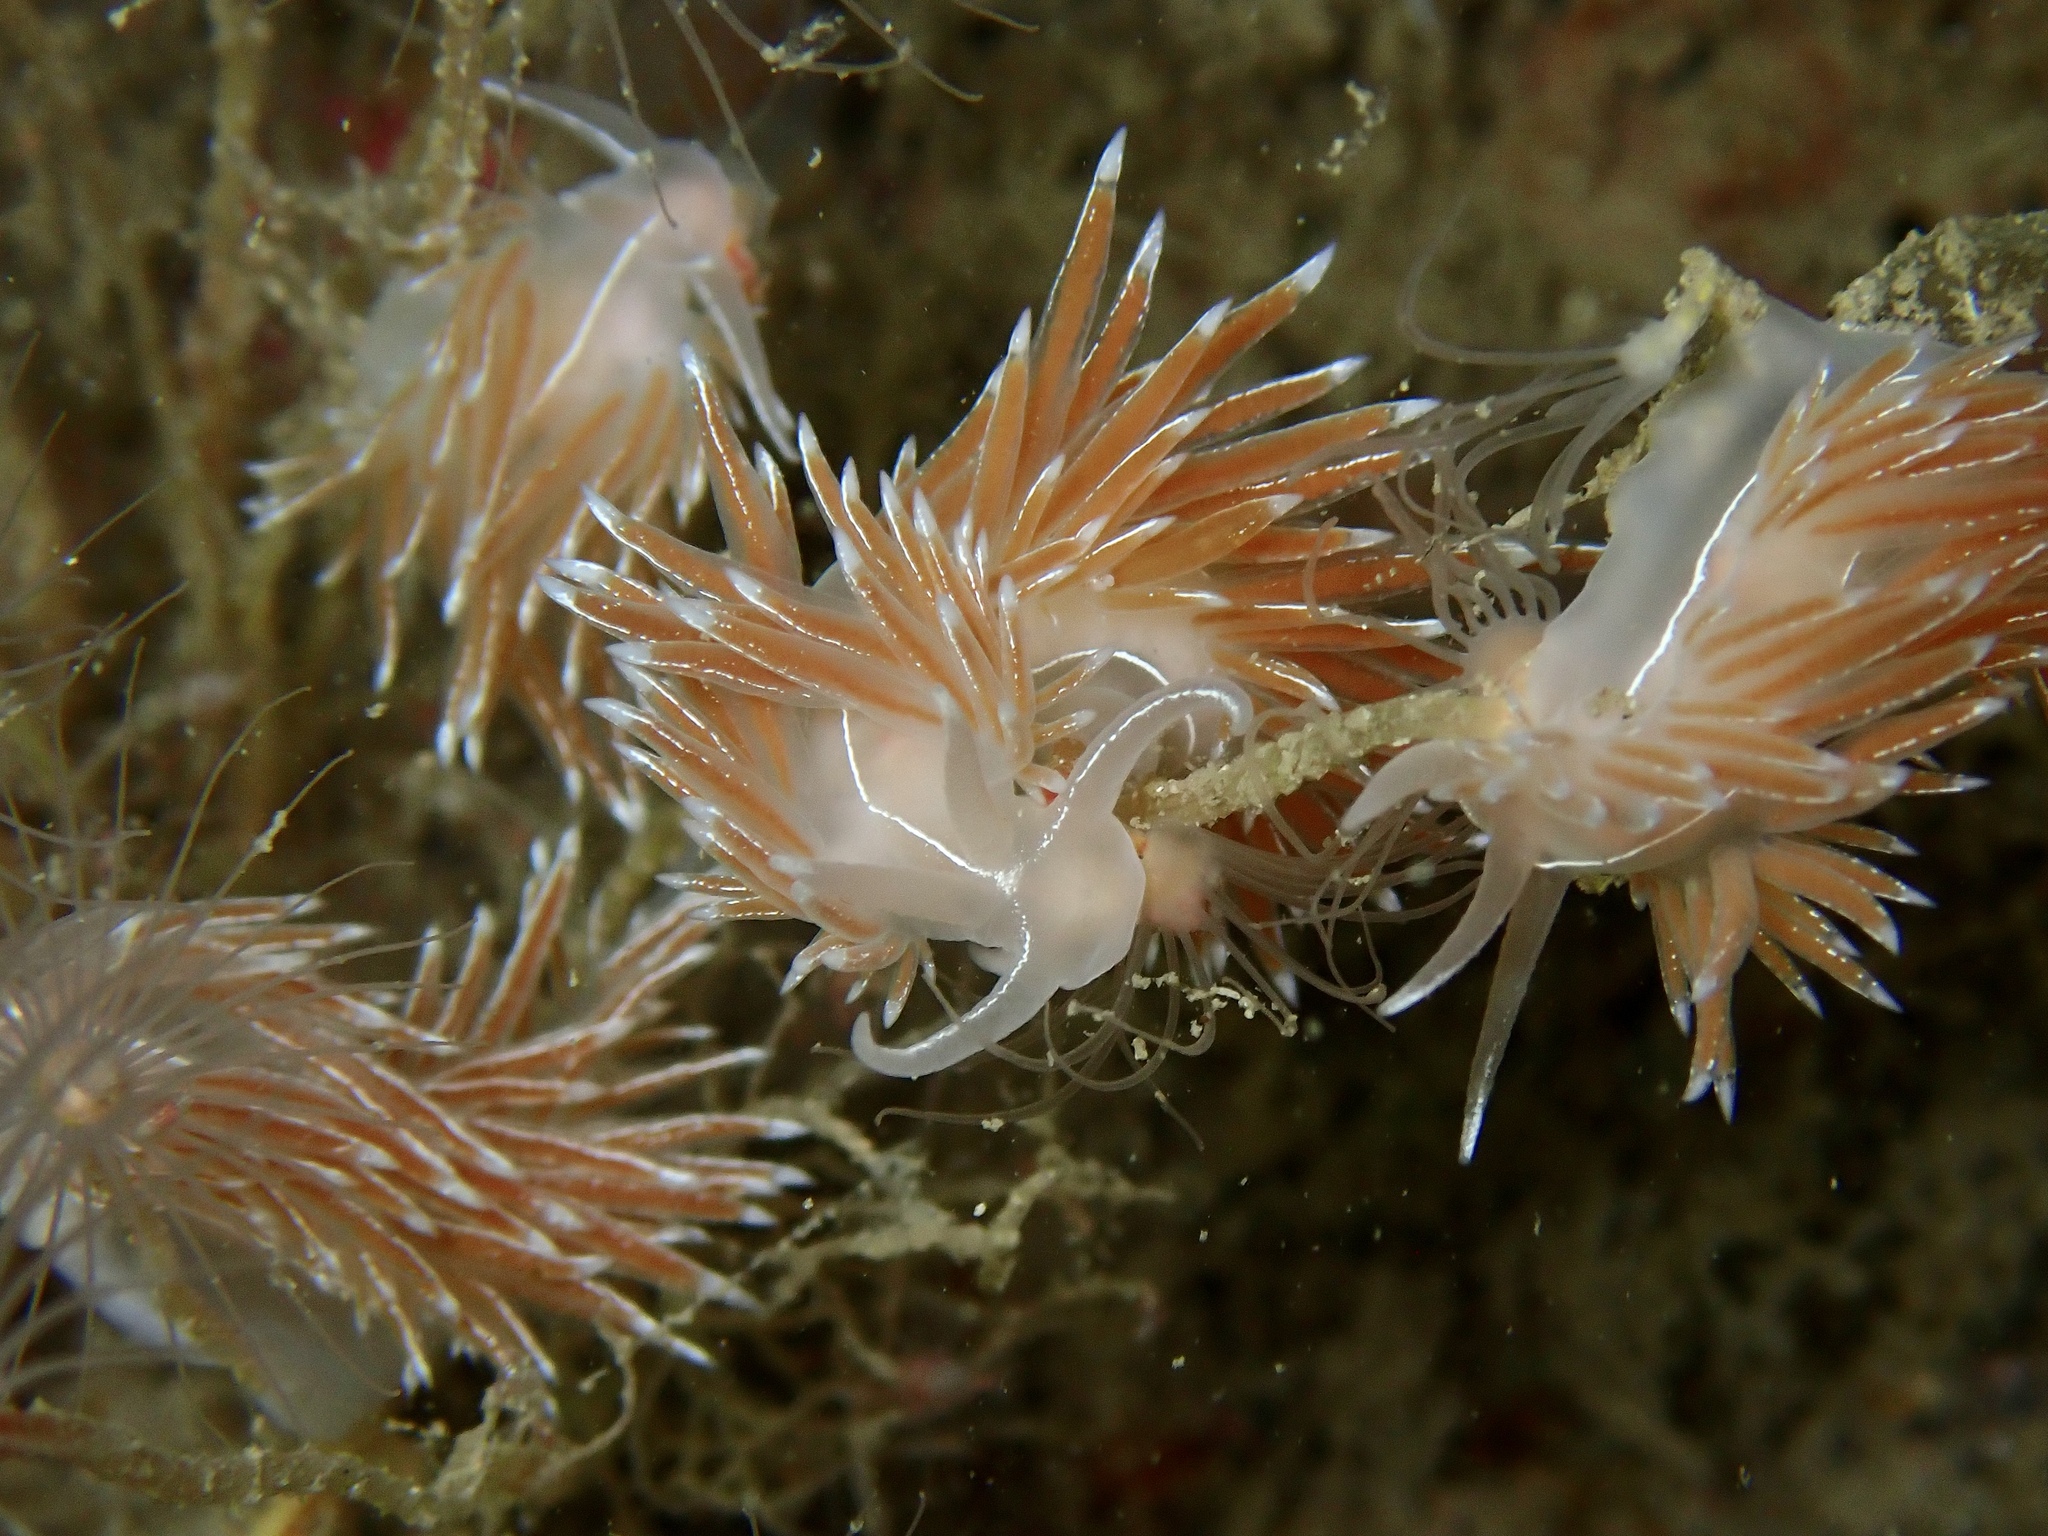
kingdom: Animalia
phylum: Mollusca
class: Gastropoda
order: Nudibranchia
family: Coryphellidae
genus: Coryphella
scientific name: Coryphella chriskaugei
